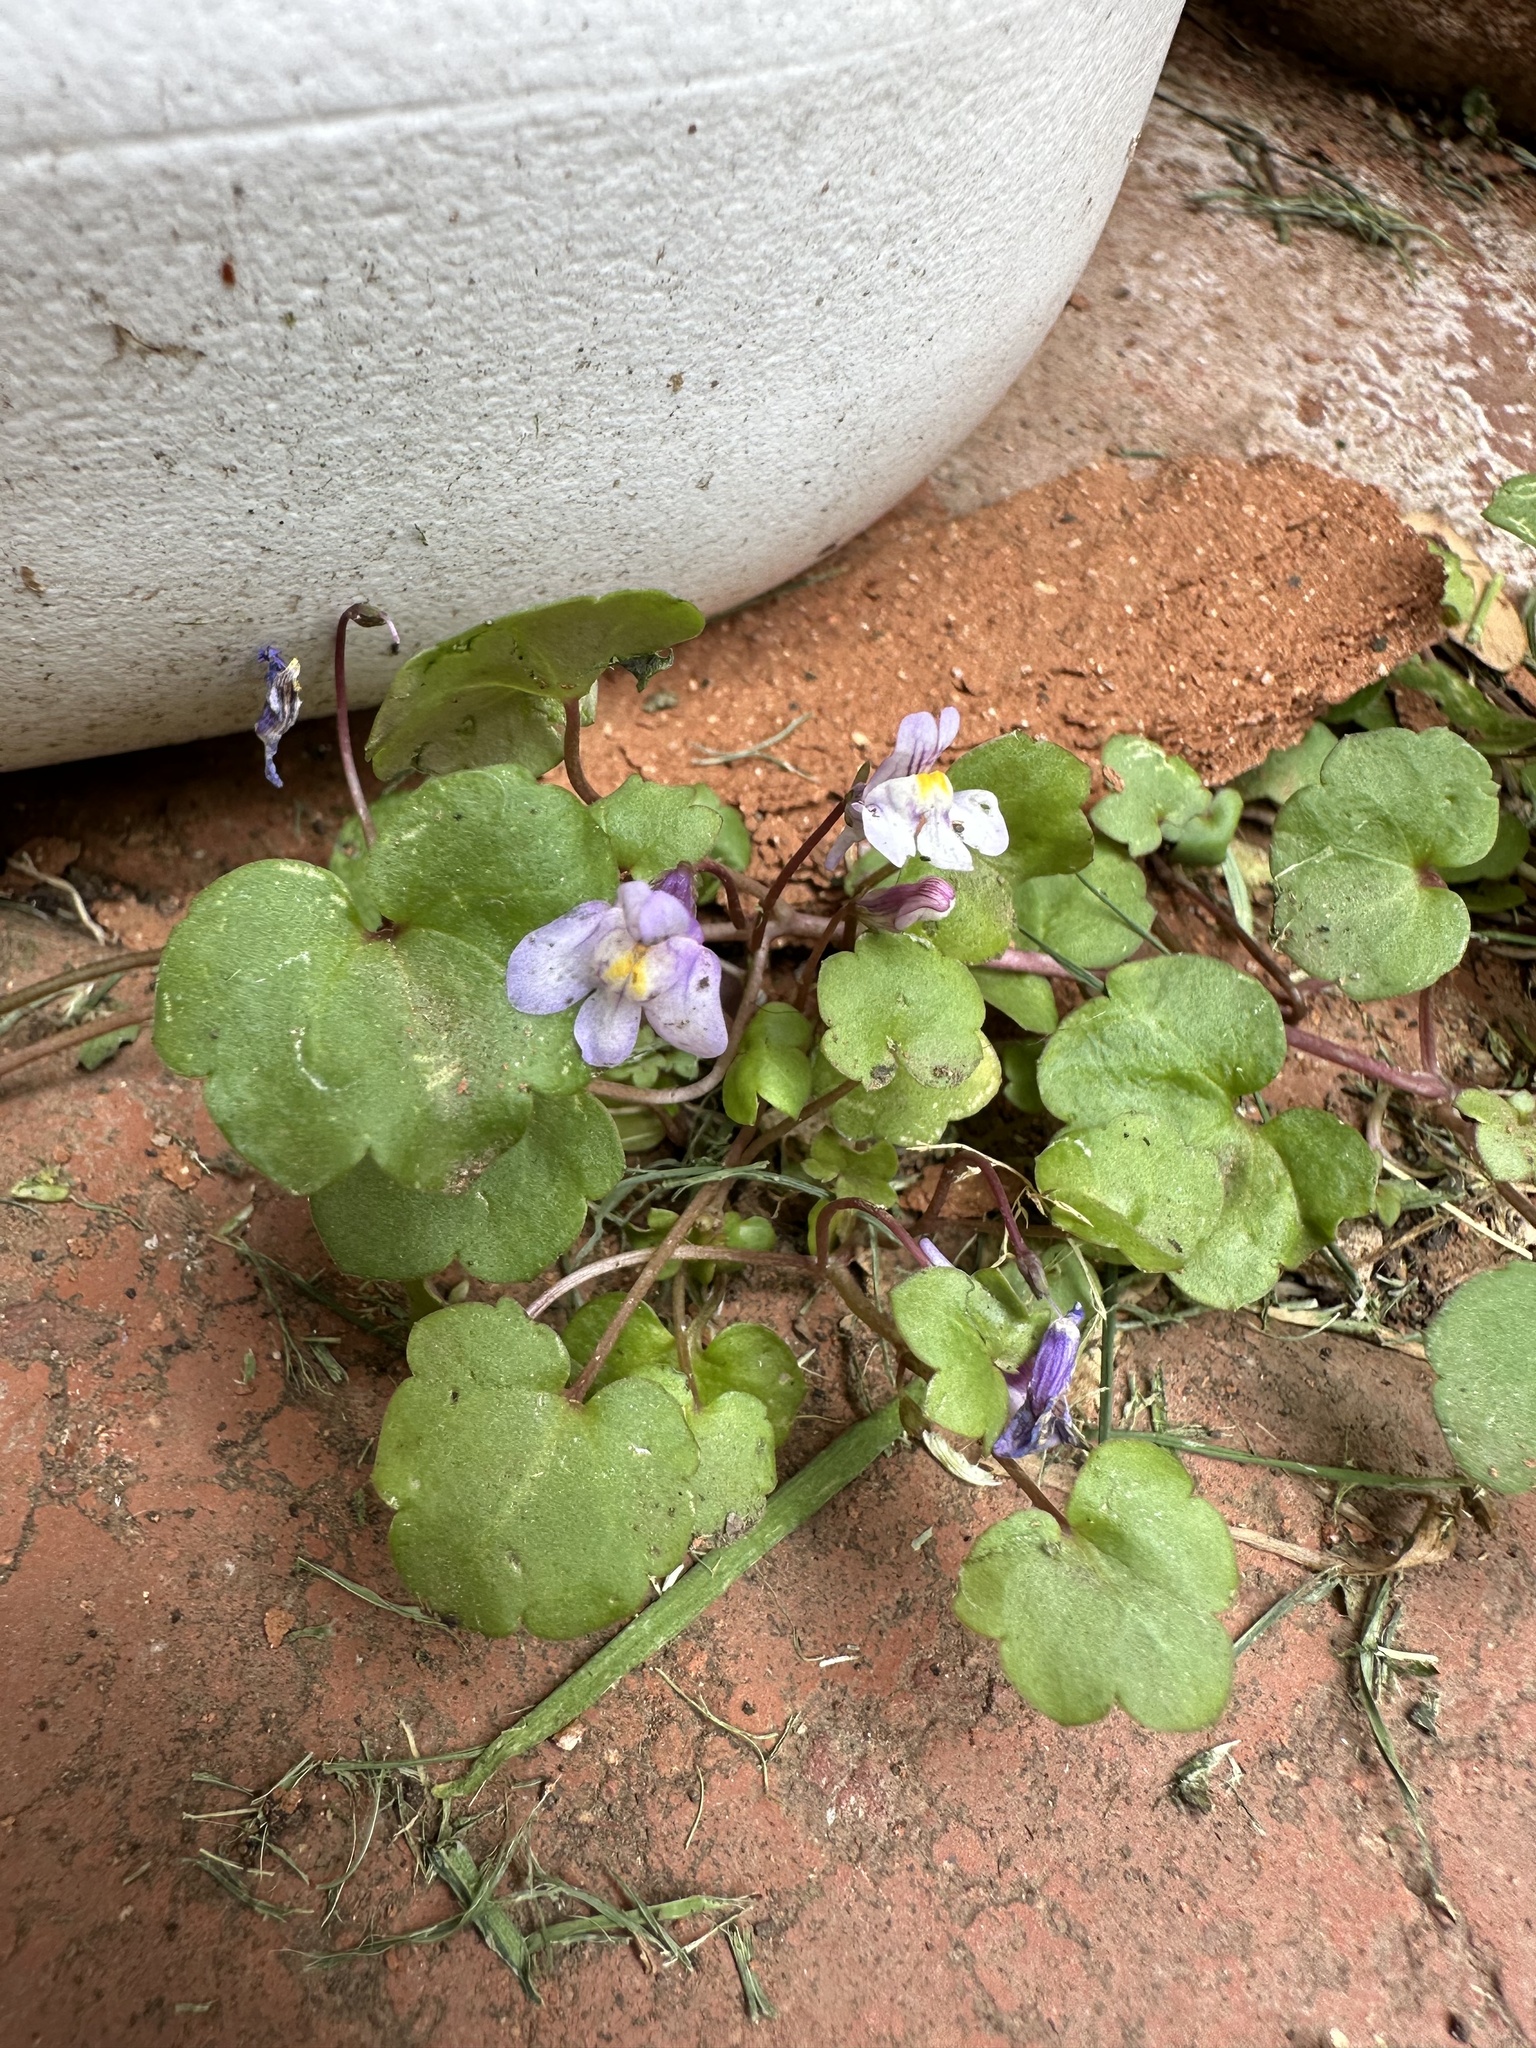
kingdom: Plantae
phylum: Tracheophyta
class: Magnoliopsida
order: Lamiales
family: Plantaginaceae
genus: Cymbalaria
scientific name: Cymbalaria muralis
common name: Ivy-leaved toadflax
